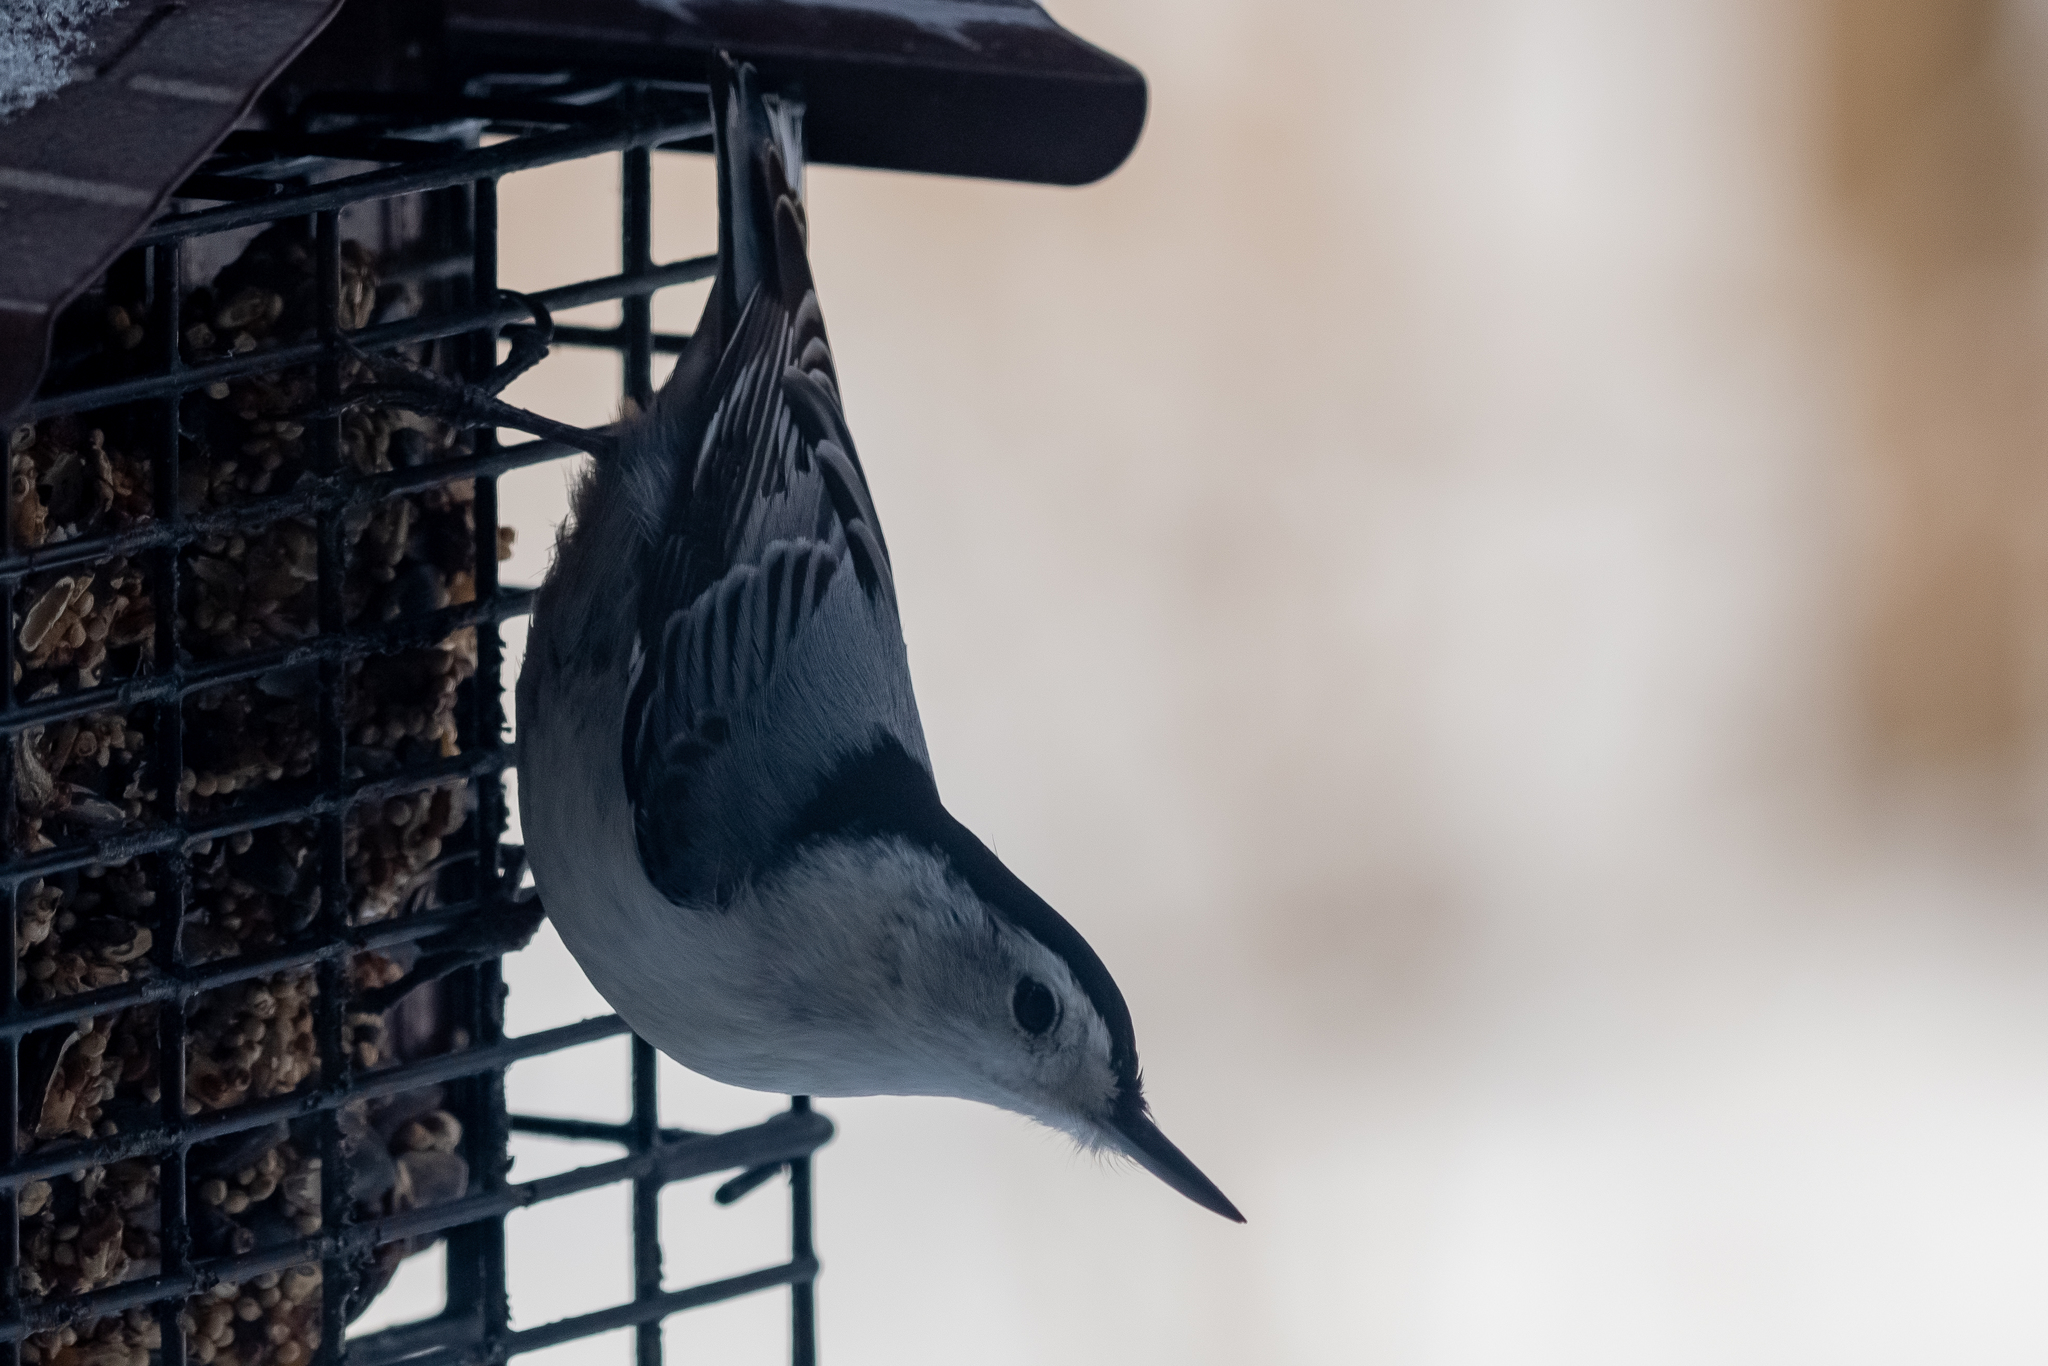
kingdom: Animalia
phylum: Chordata
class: Aves
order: Passeriformes
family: Sittidae
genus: Sitta
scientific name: Sitta carolinensis
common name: White-breasted nuthatch
